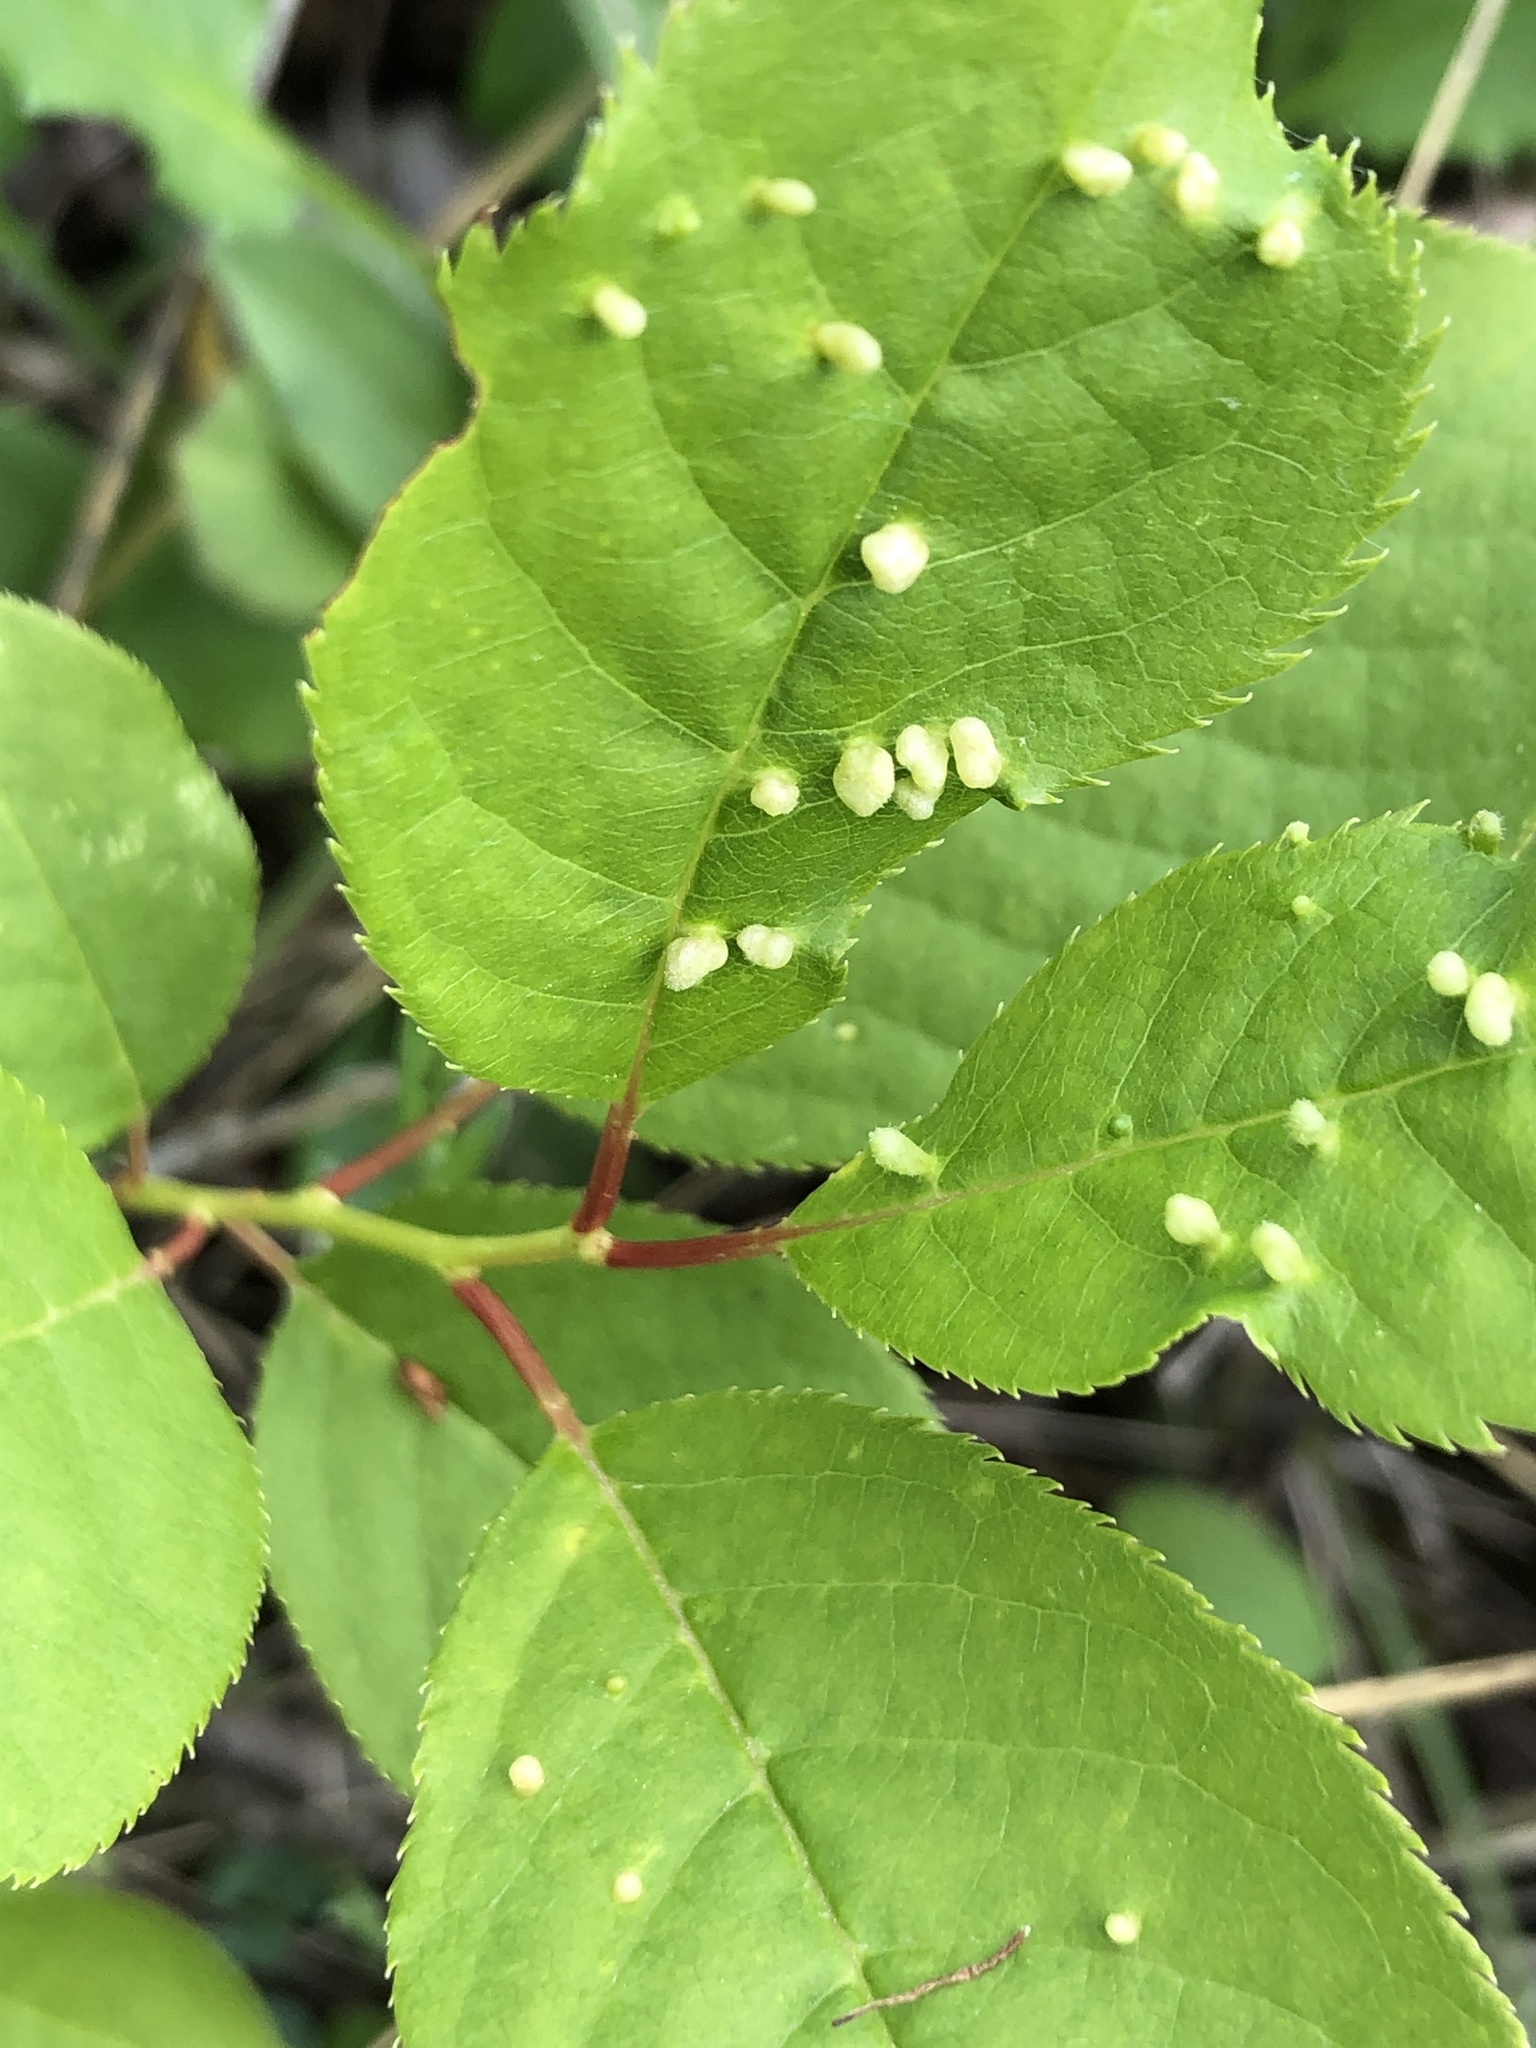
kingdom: Animalia
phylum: Arthropoda
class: Arachnida
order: Trombidiformes
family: Eriophyidae
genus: Eriophyes
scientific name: Eriophyes emarginatae
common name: Plum leaf gall mite
